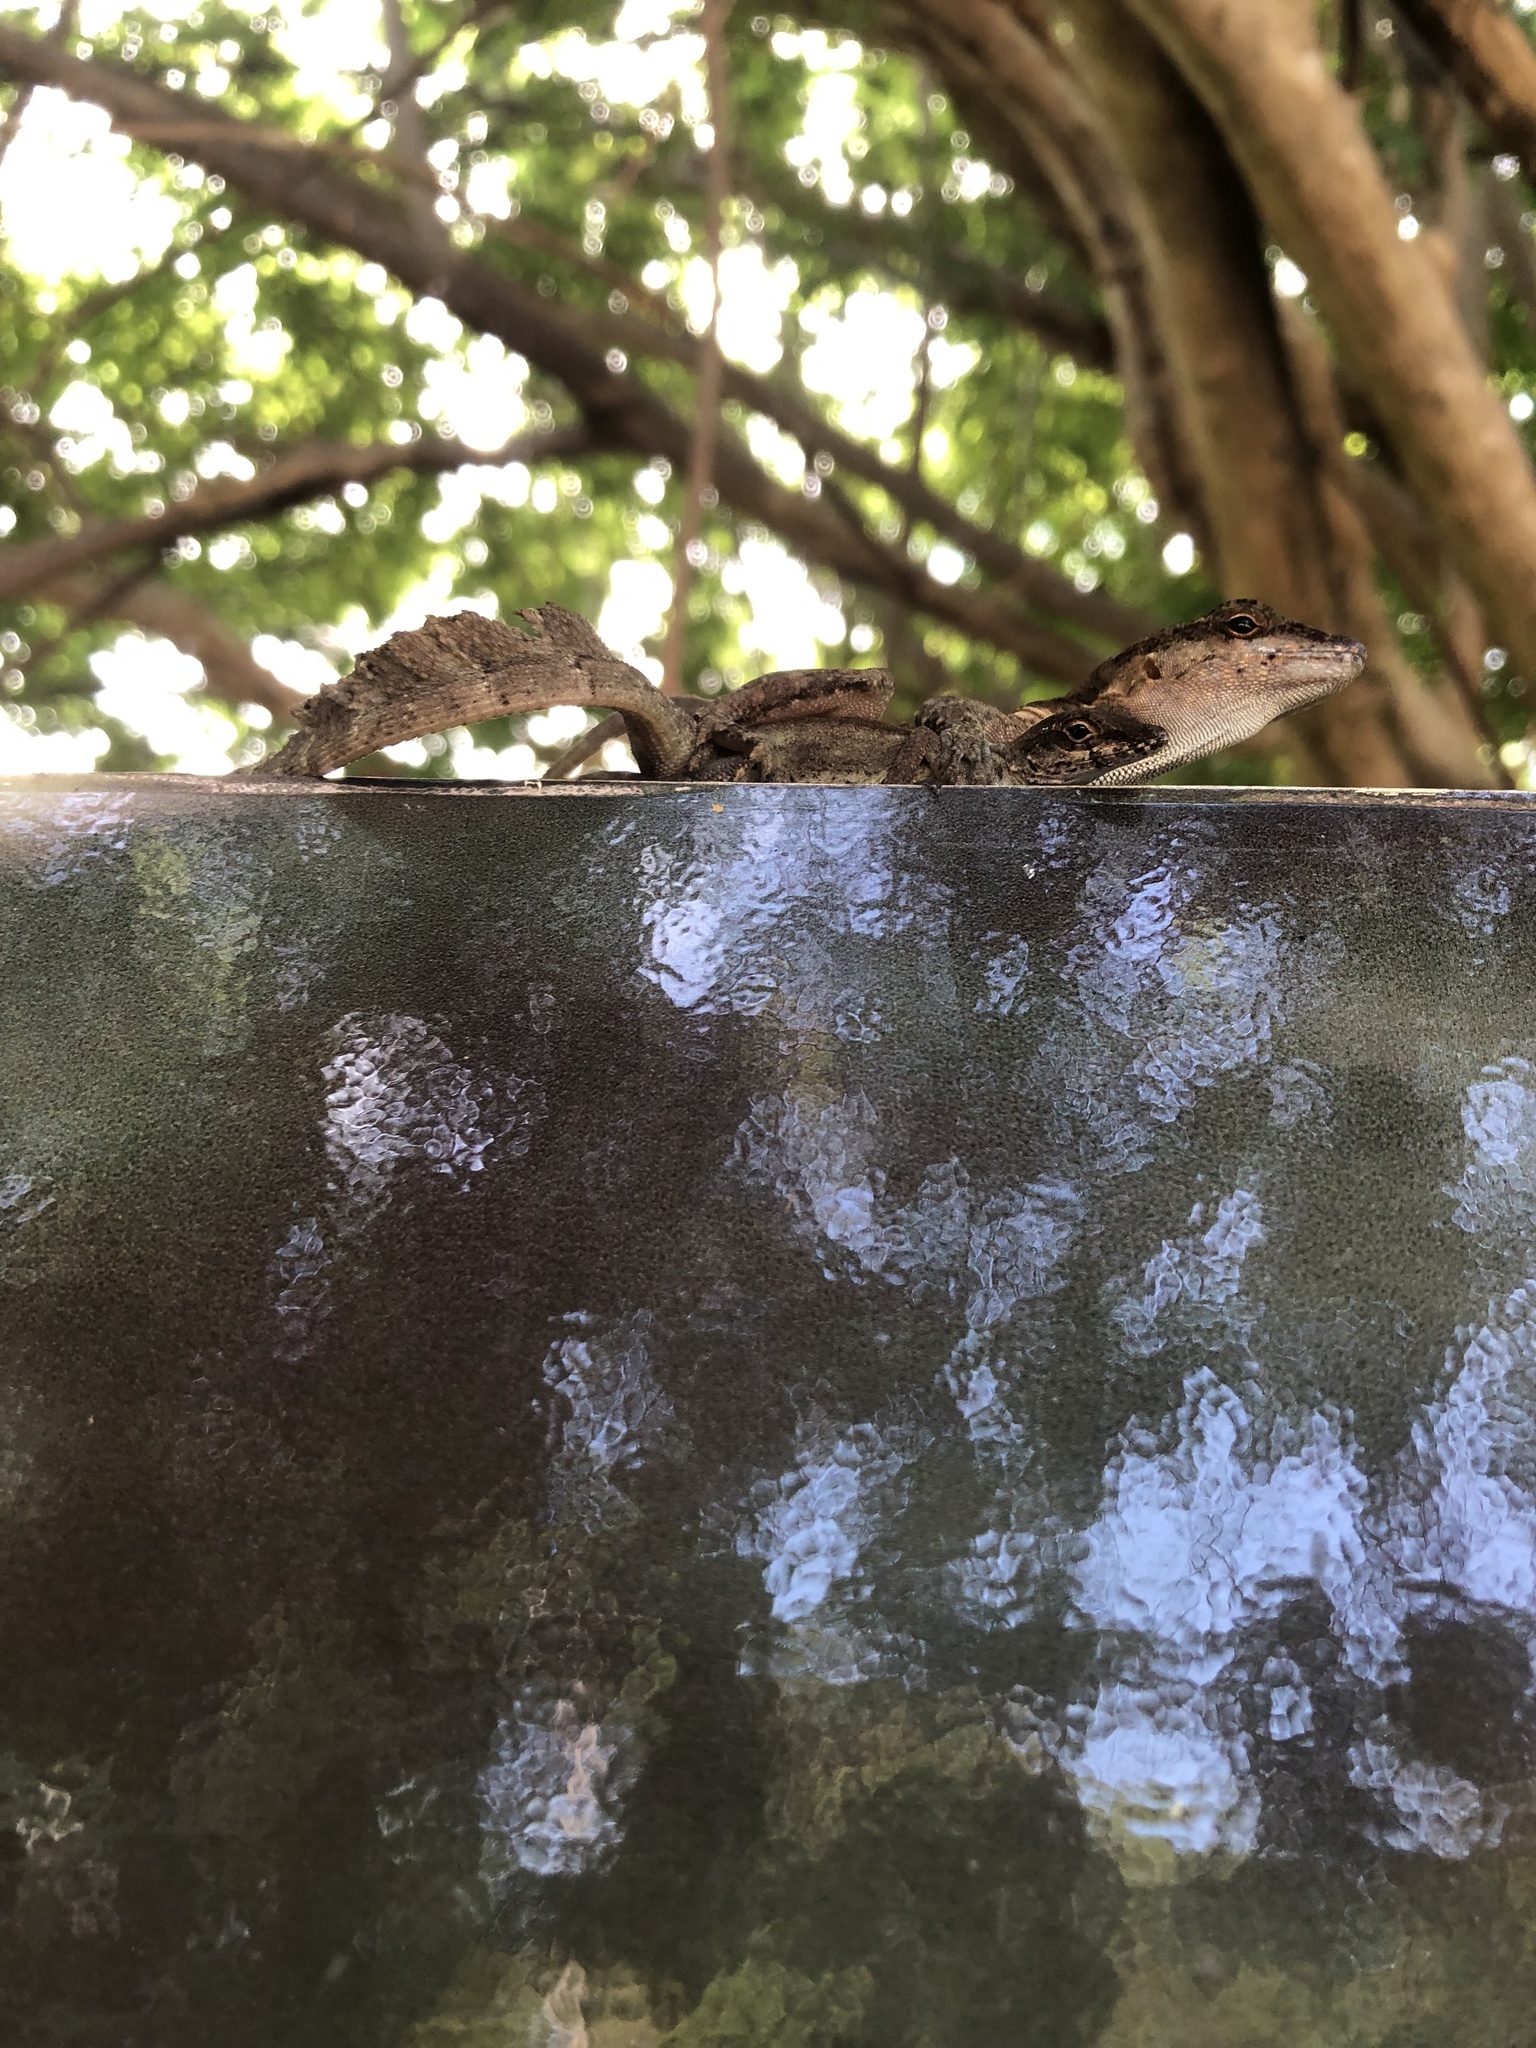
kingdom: Animalia
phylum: Chordata
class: Squamata
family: Dactyloidae
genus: Anolis
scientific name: Anolis cristatellus
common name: Crested anole
